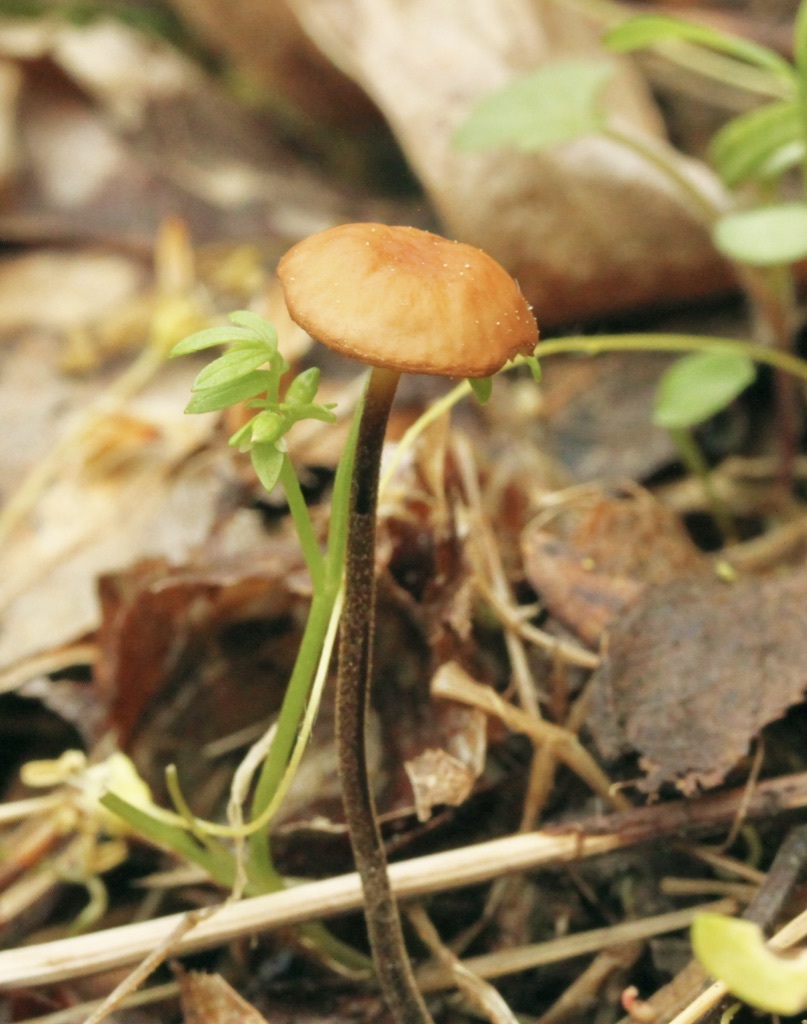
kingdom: Fungi
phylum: Basidiomycota
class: Agaricomycetes
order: Agaricales
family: Physalacriaceae
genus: Rhizomarasmius
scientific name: Rhizomarasmius pyrrhocephalus
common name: Hairy long stem marasmius
